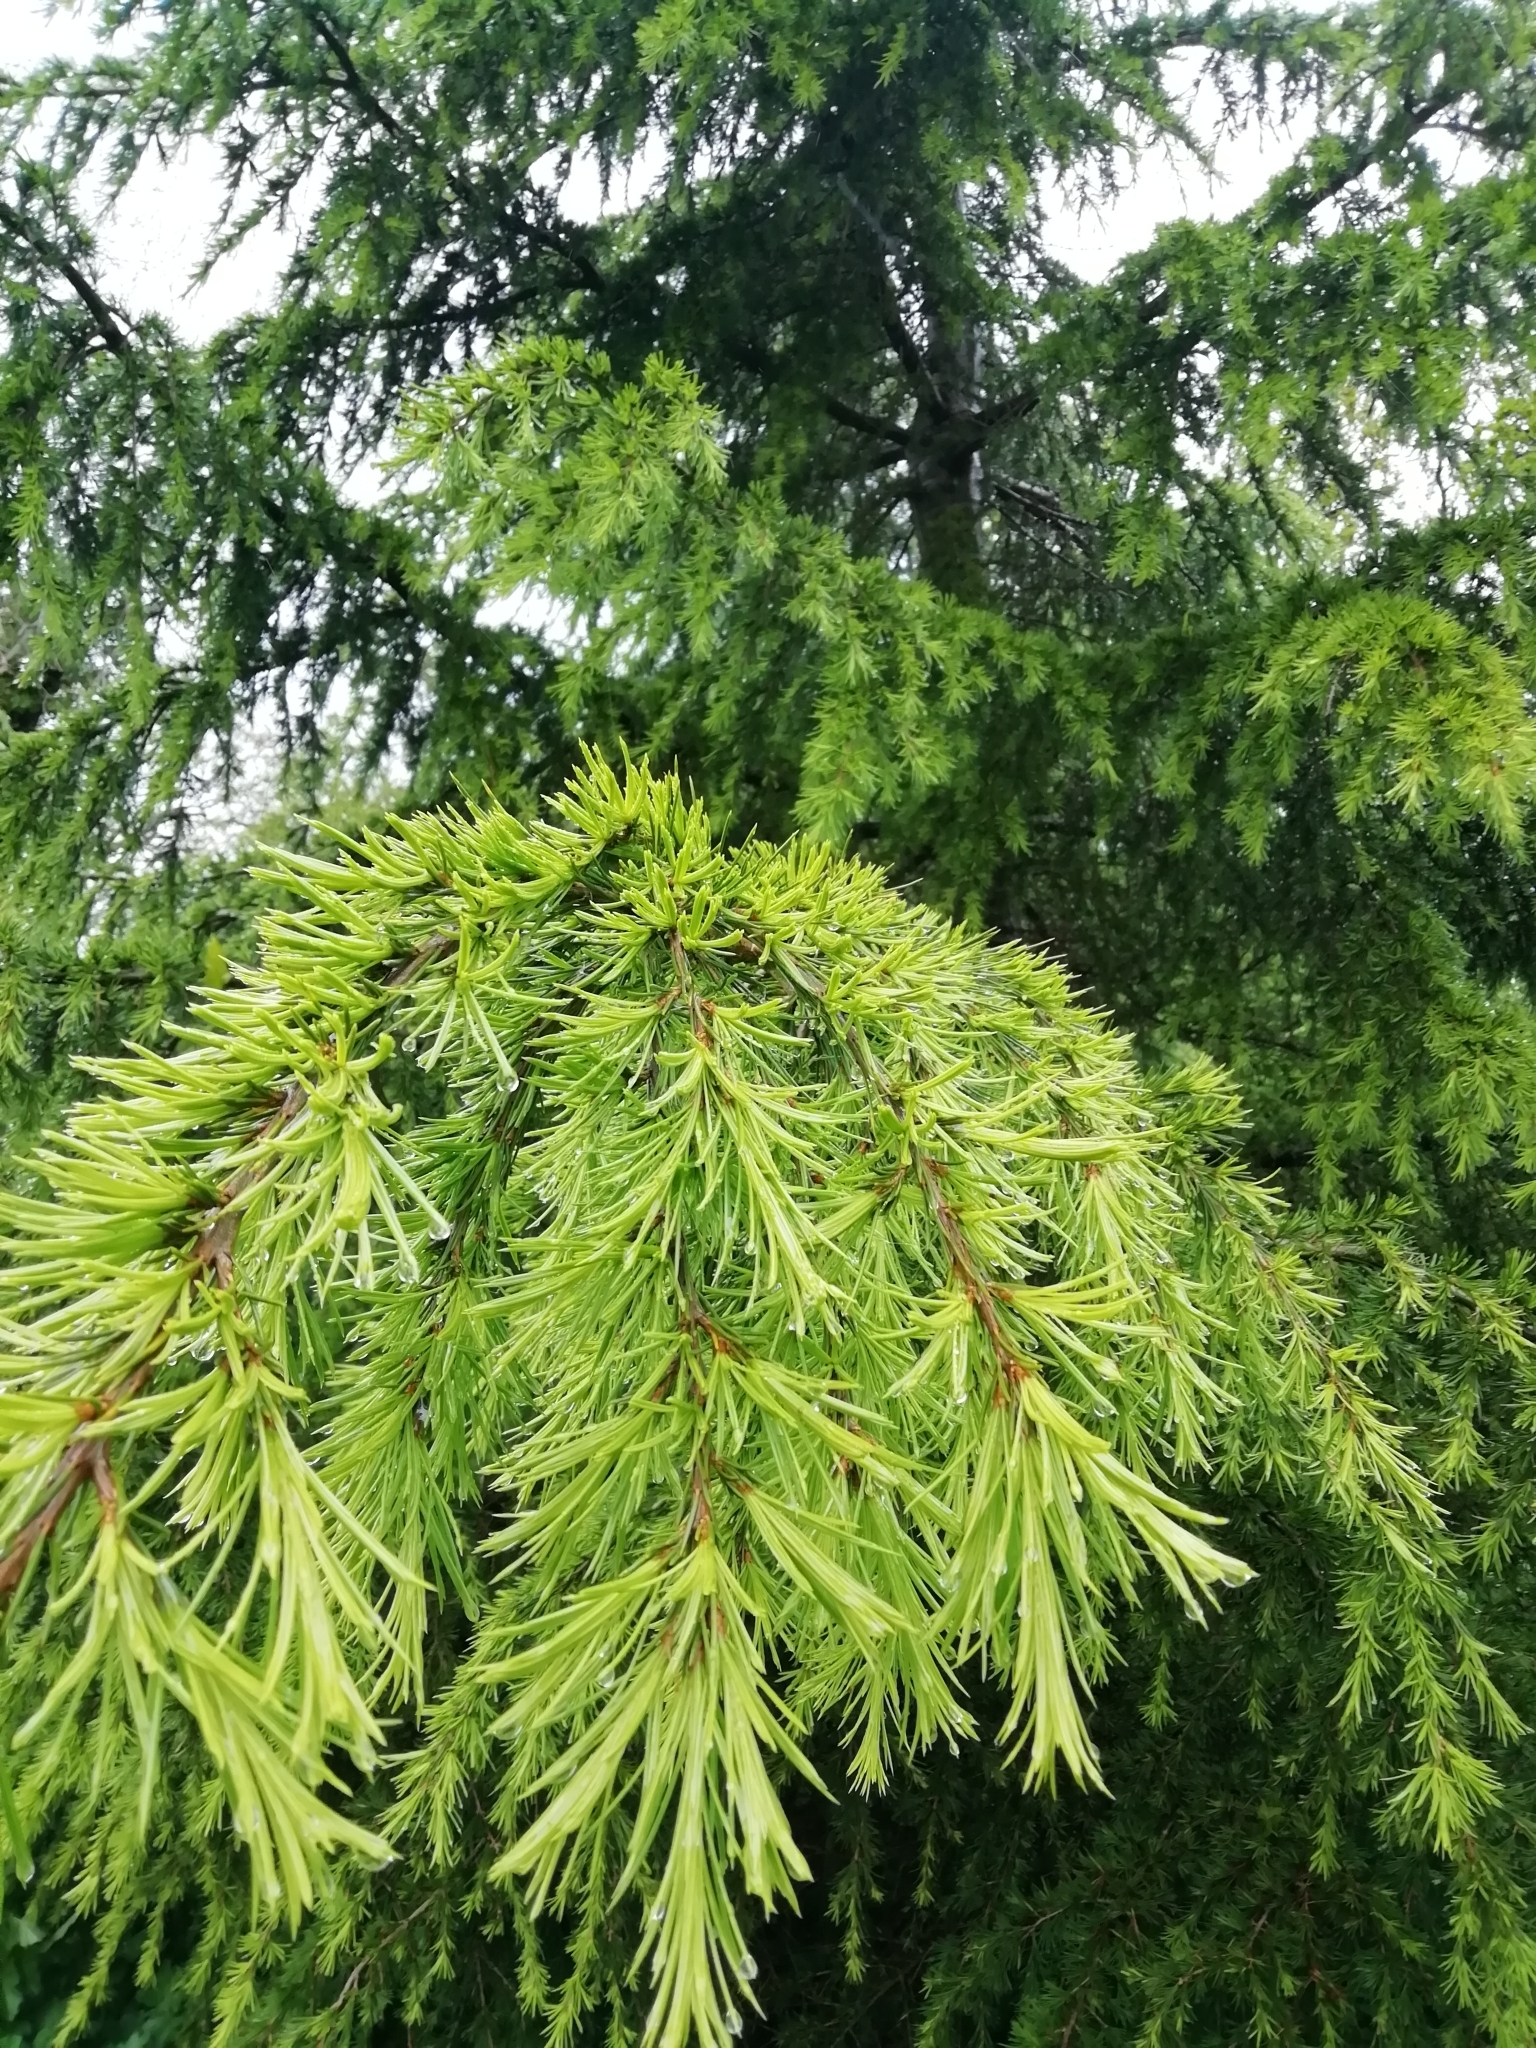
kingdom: Plantae
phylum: Tracheophyta
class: Pinopsida
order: Pinales
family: Pinaceae
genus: Larix
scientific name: Larix decidua
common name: European larch
